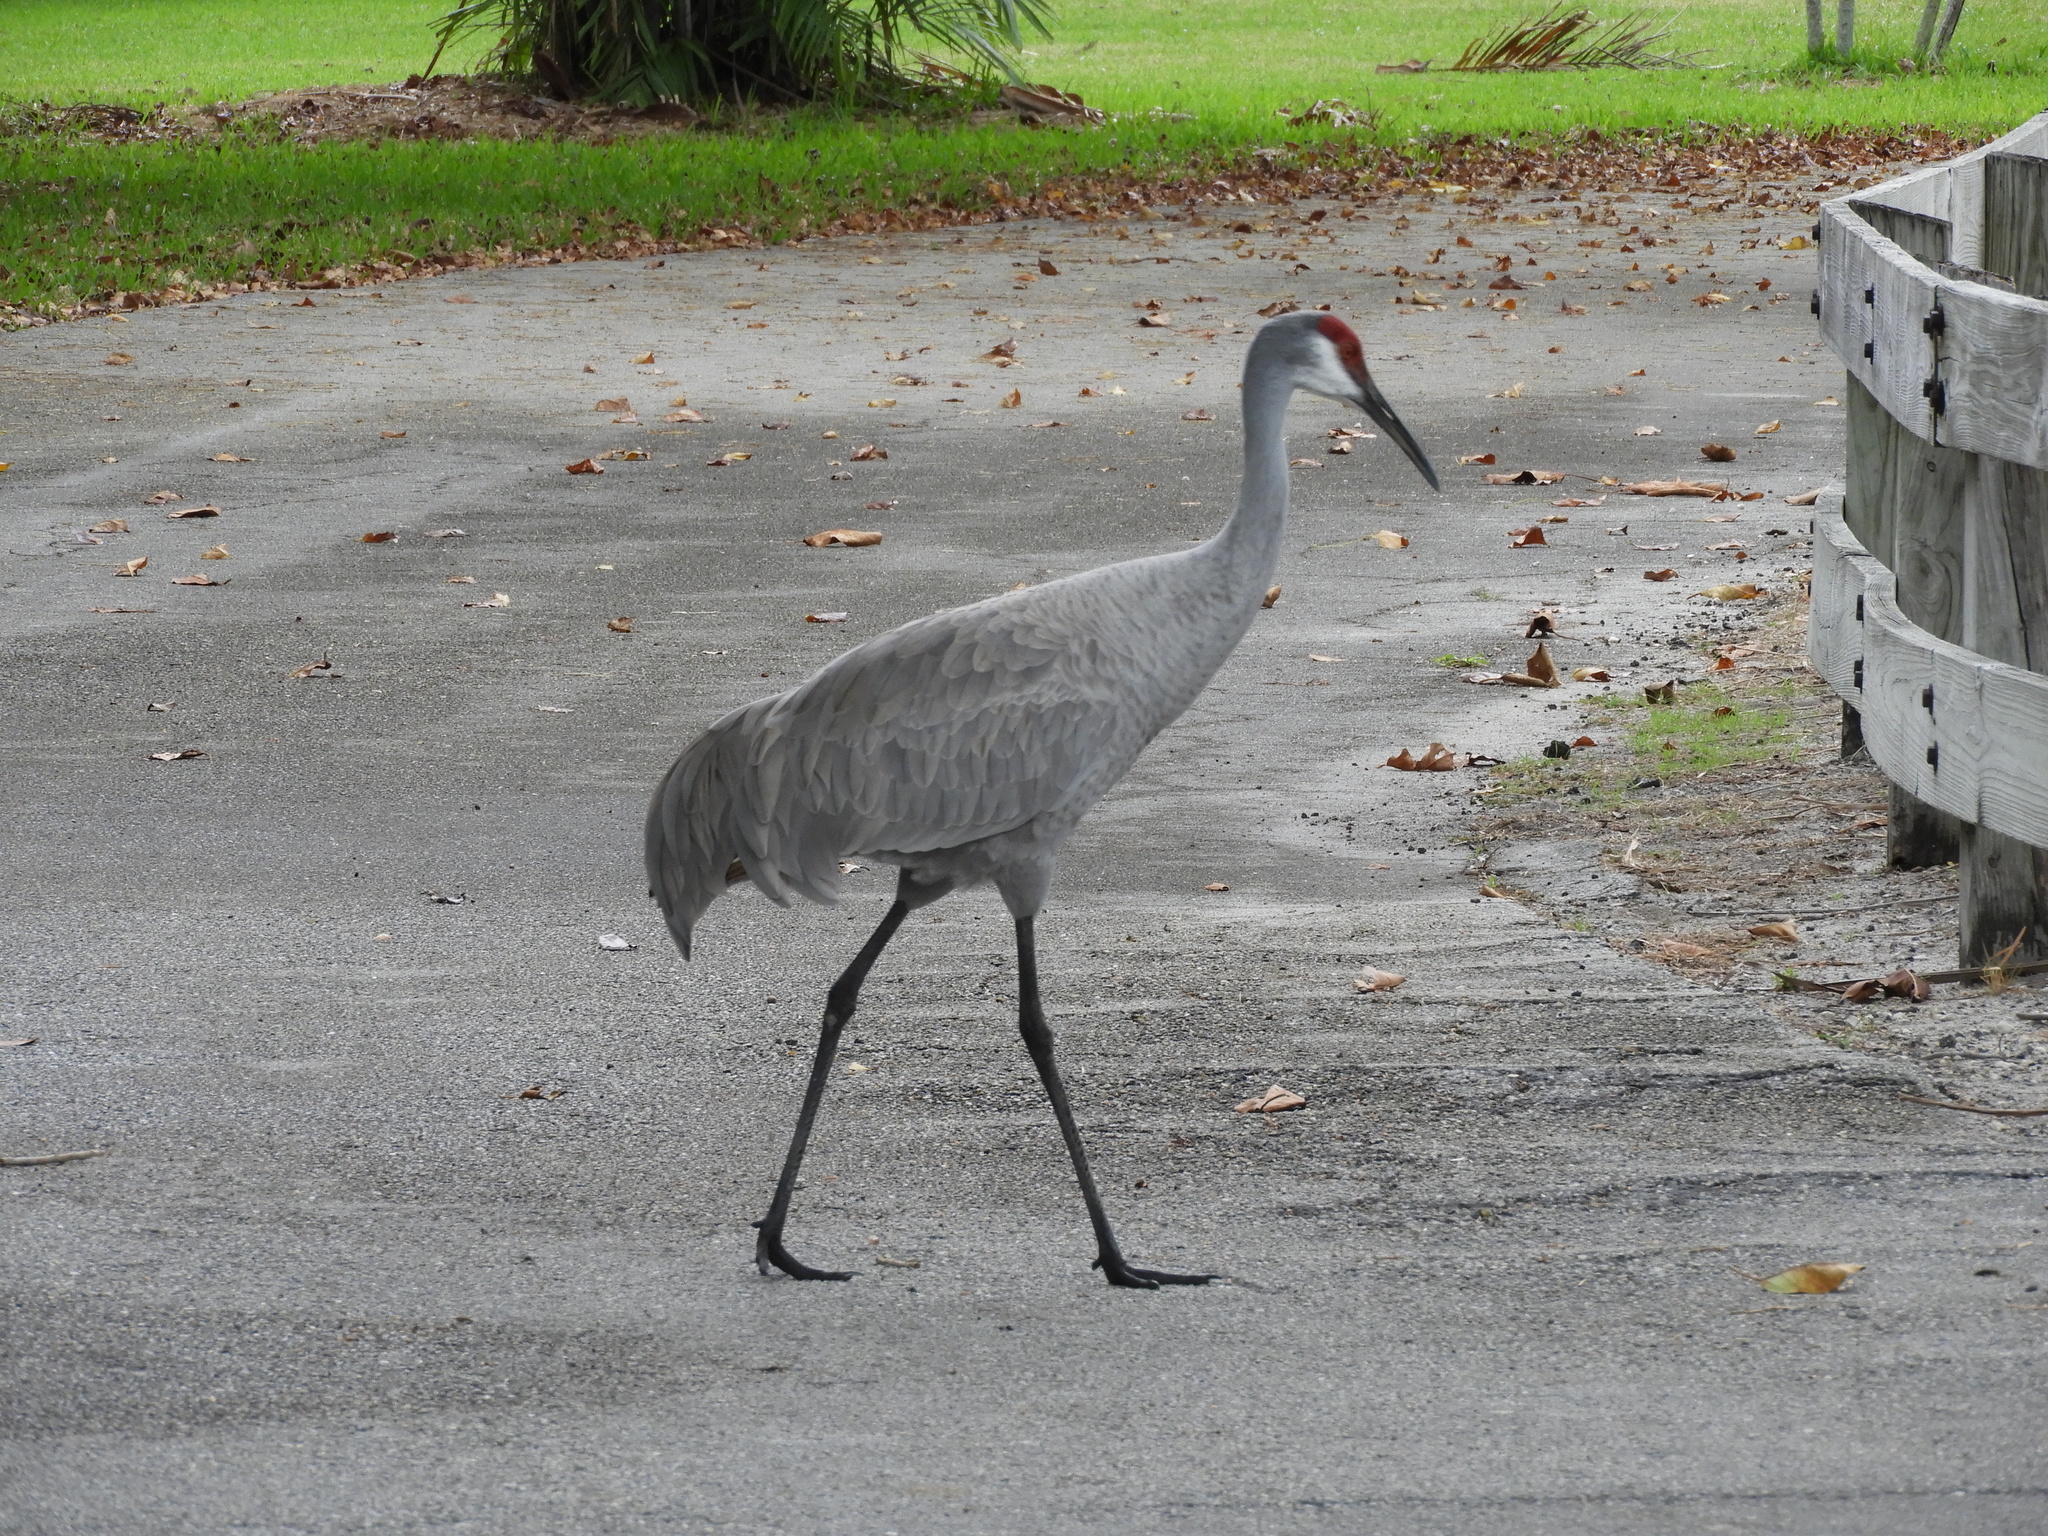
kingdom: Animalia
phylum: Chordata
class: Aves
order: Gruiformes
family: Gruidae
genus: Grus
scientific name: Grus canadensis
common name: Sandhill crane
